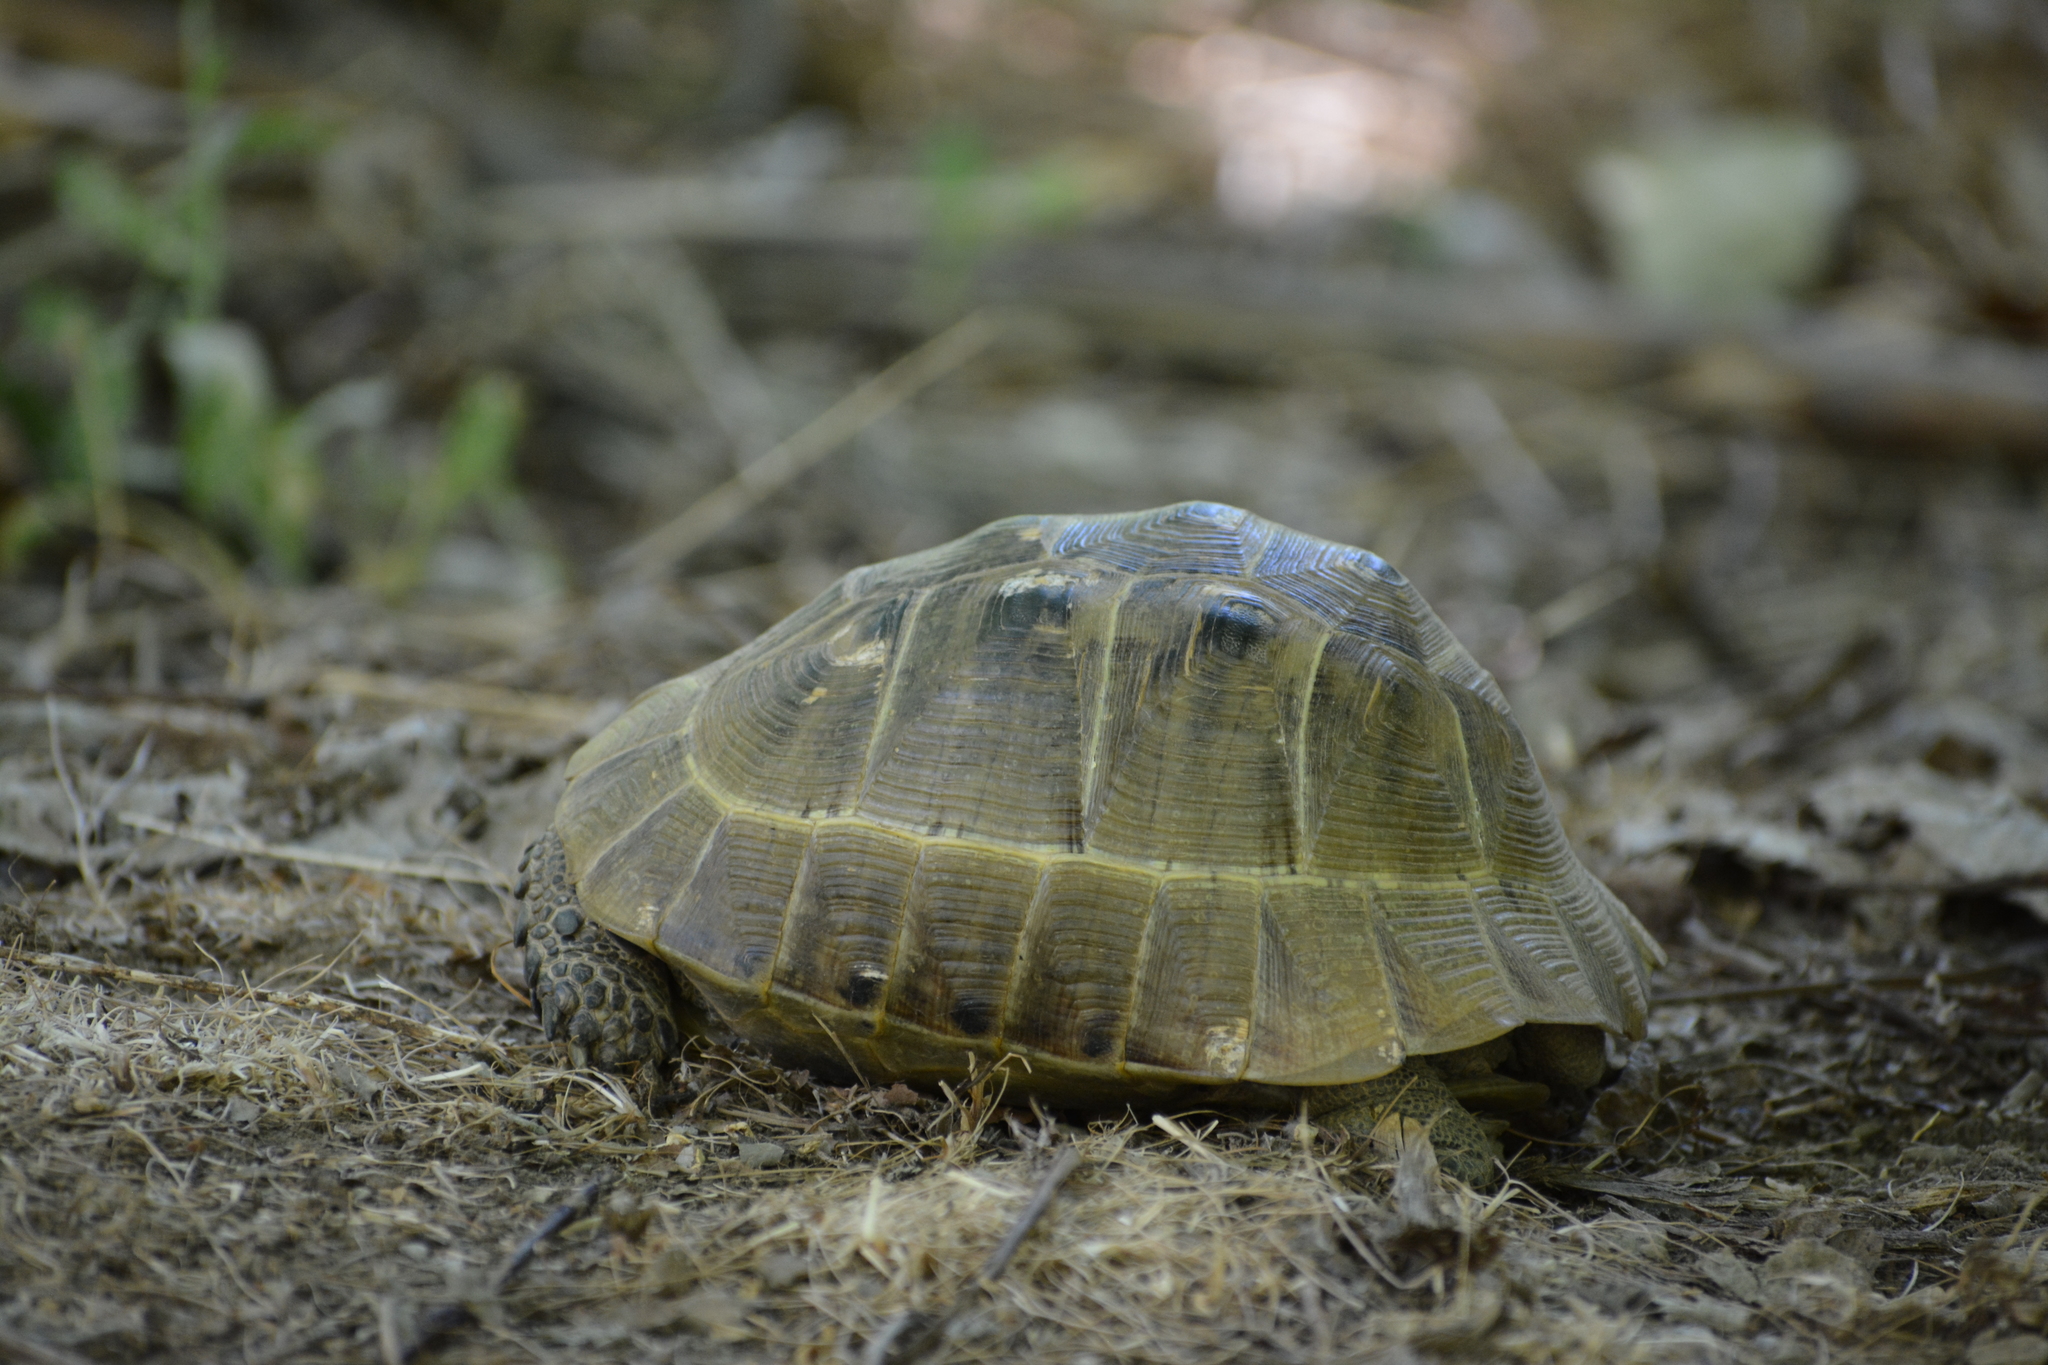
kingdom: Animalia
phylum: Chordata
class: Testudines
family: Testudinidae
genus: Testudo
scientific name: Testudo graeca
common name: Common tortoise
